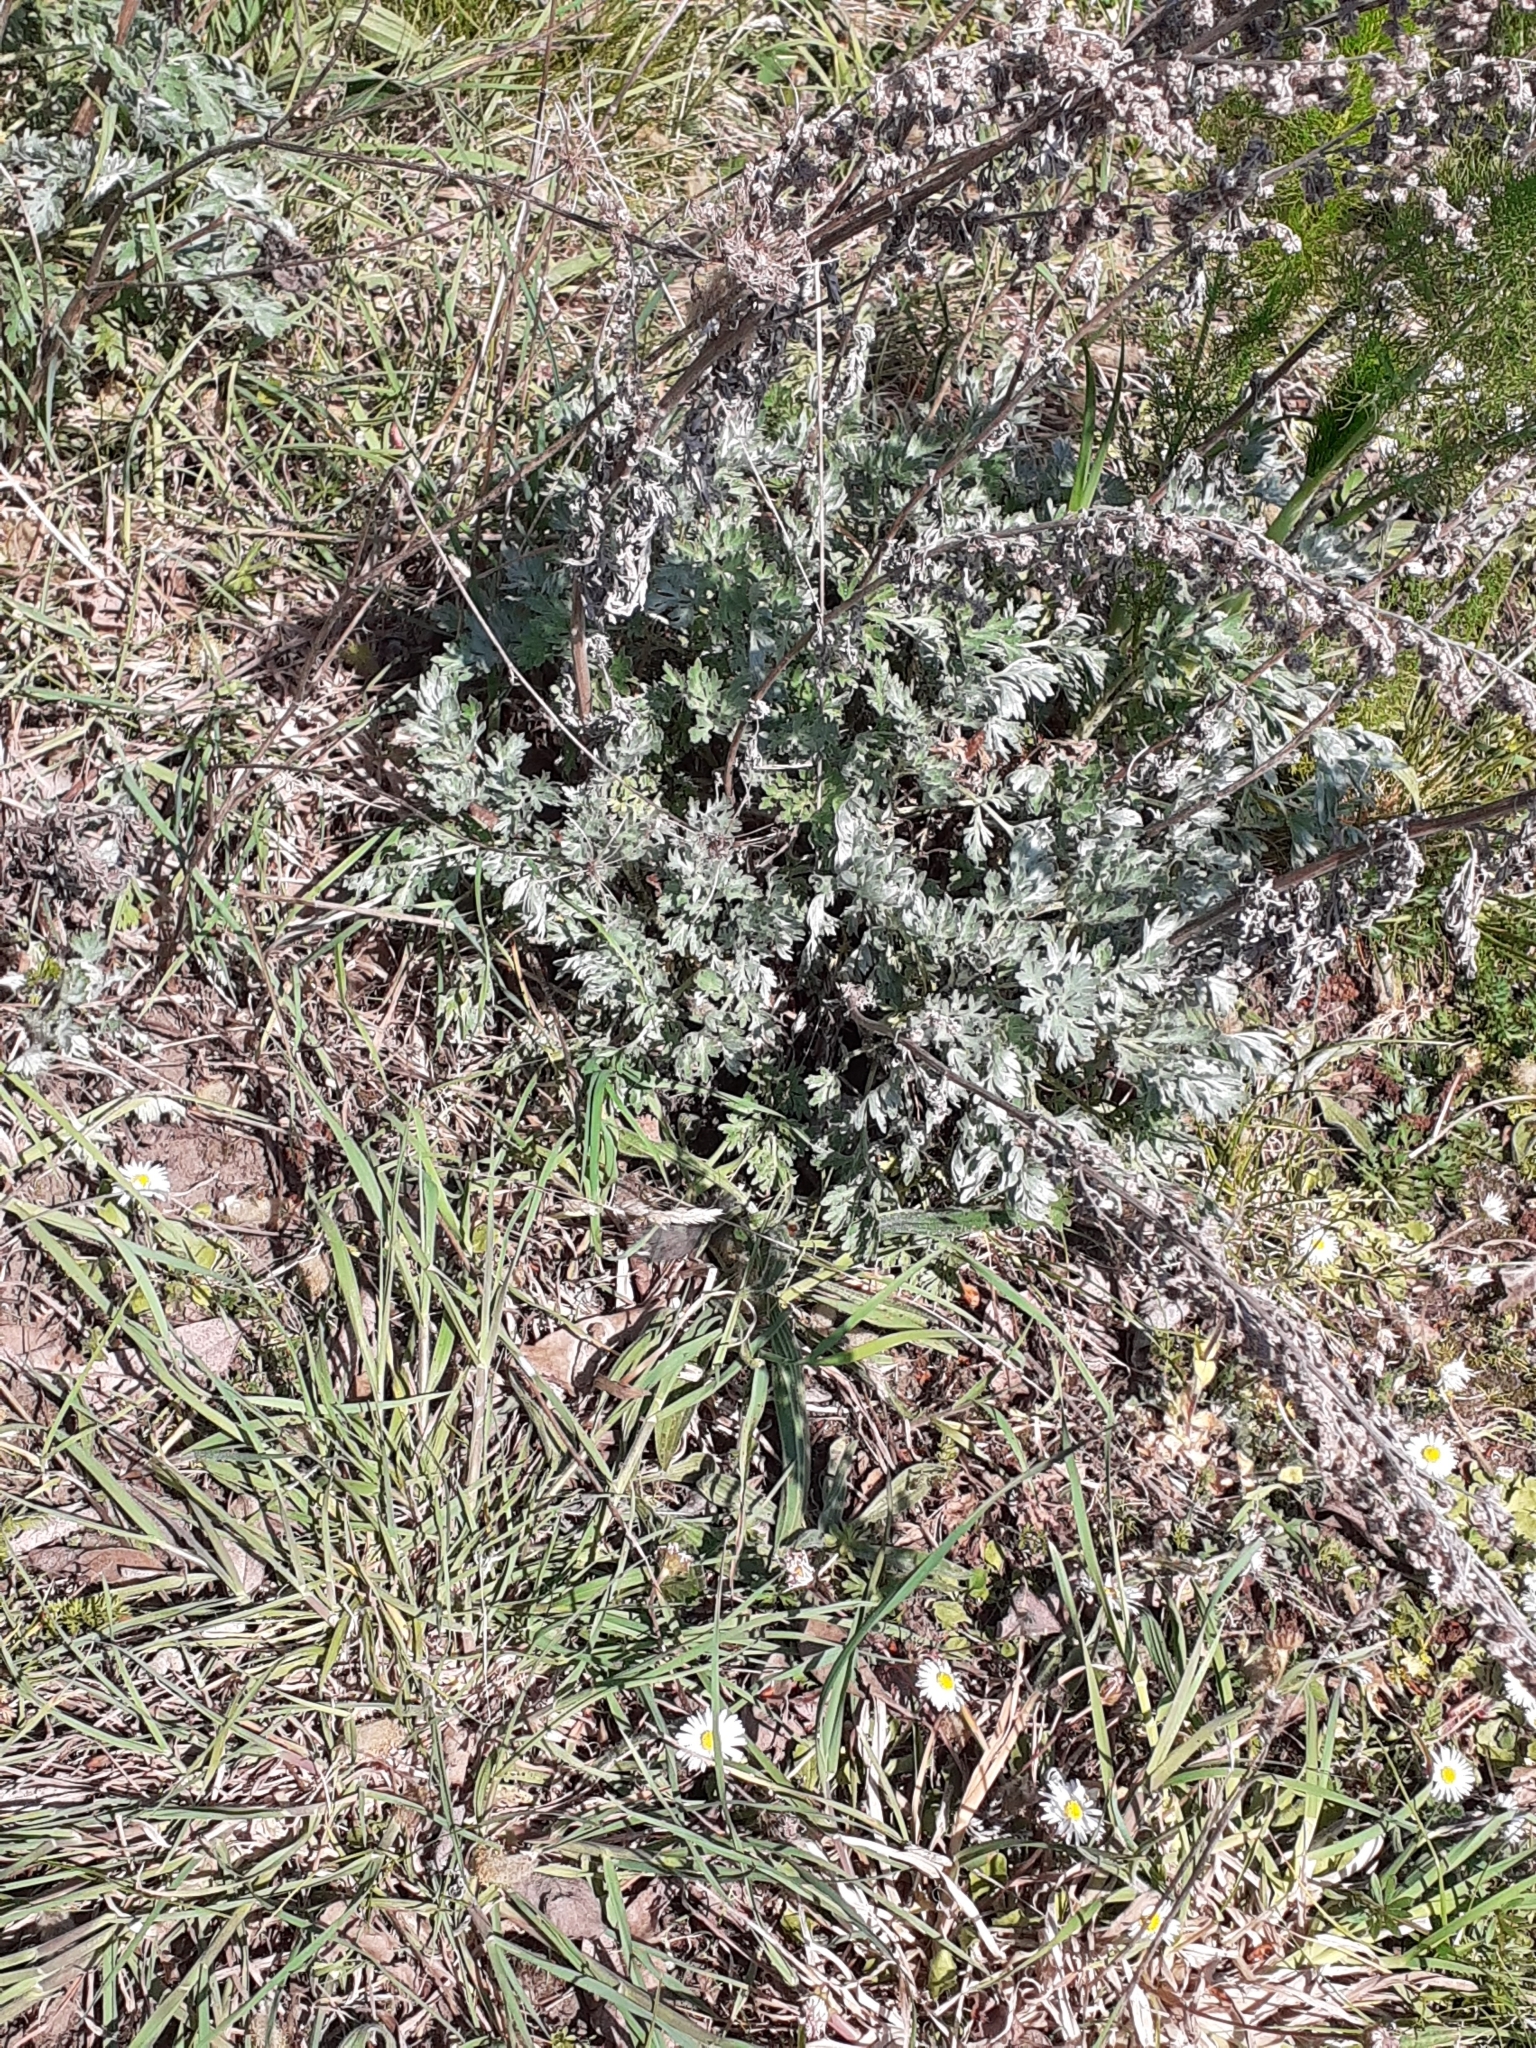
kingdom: Plantae
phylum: Tracheophyta
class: Magnoliopsida
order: Asterales
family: Asteraceae
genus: Artemisia
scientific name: Artemisia absinthium
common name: Wormwood
